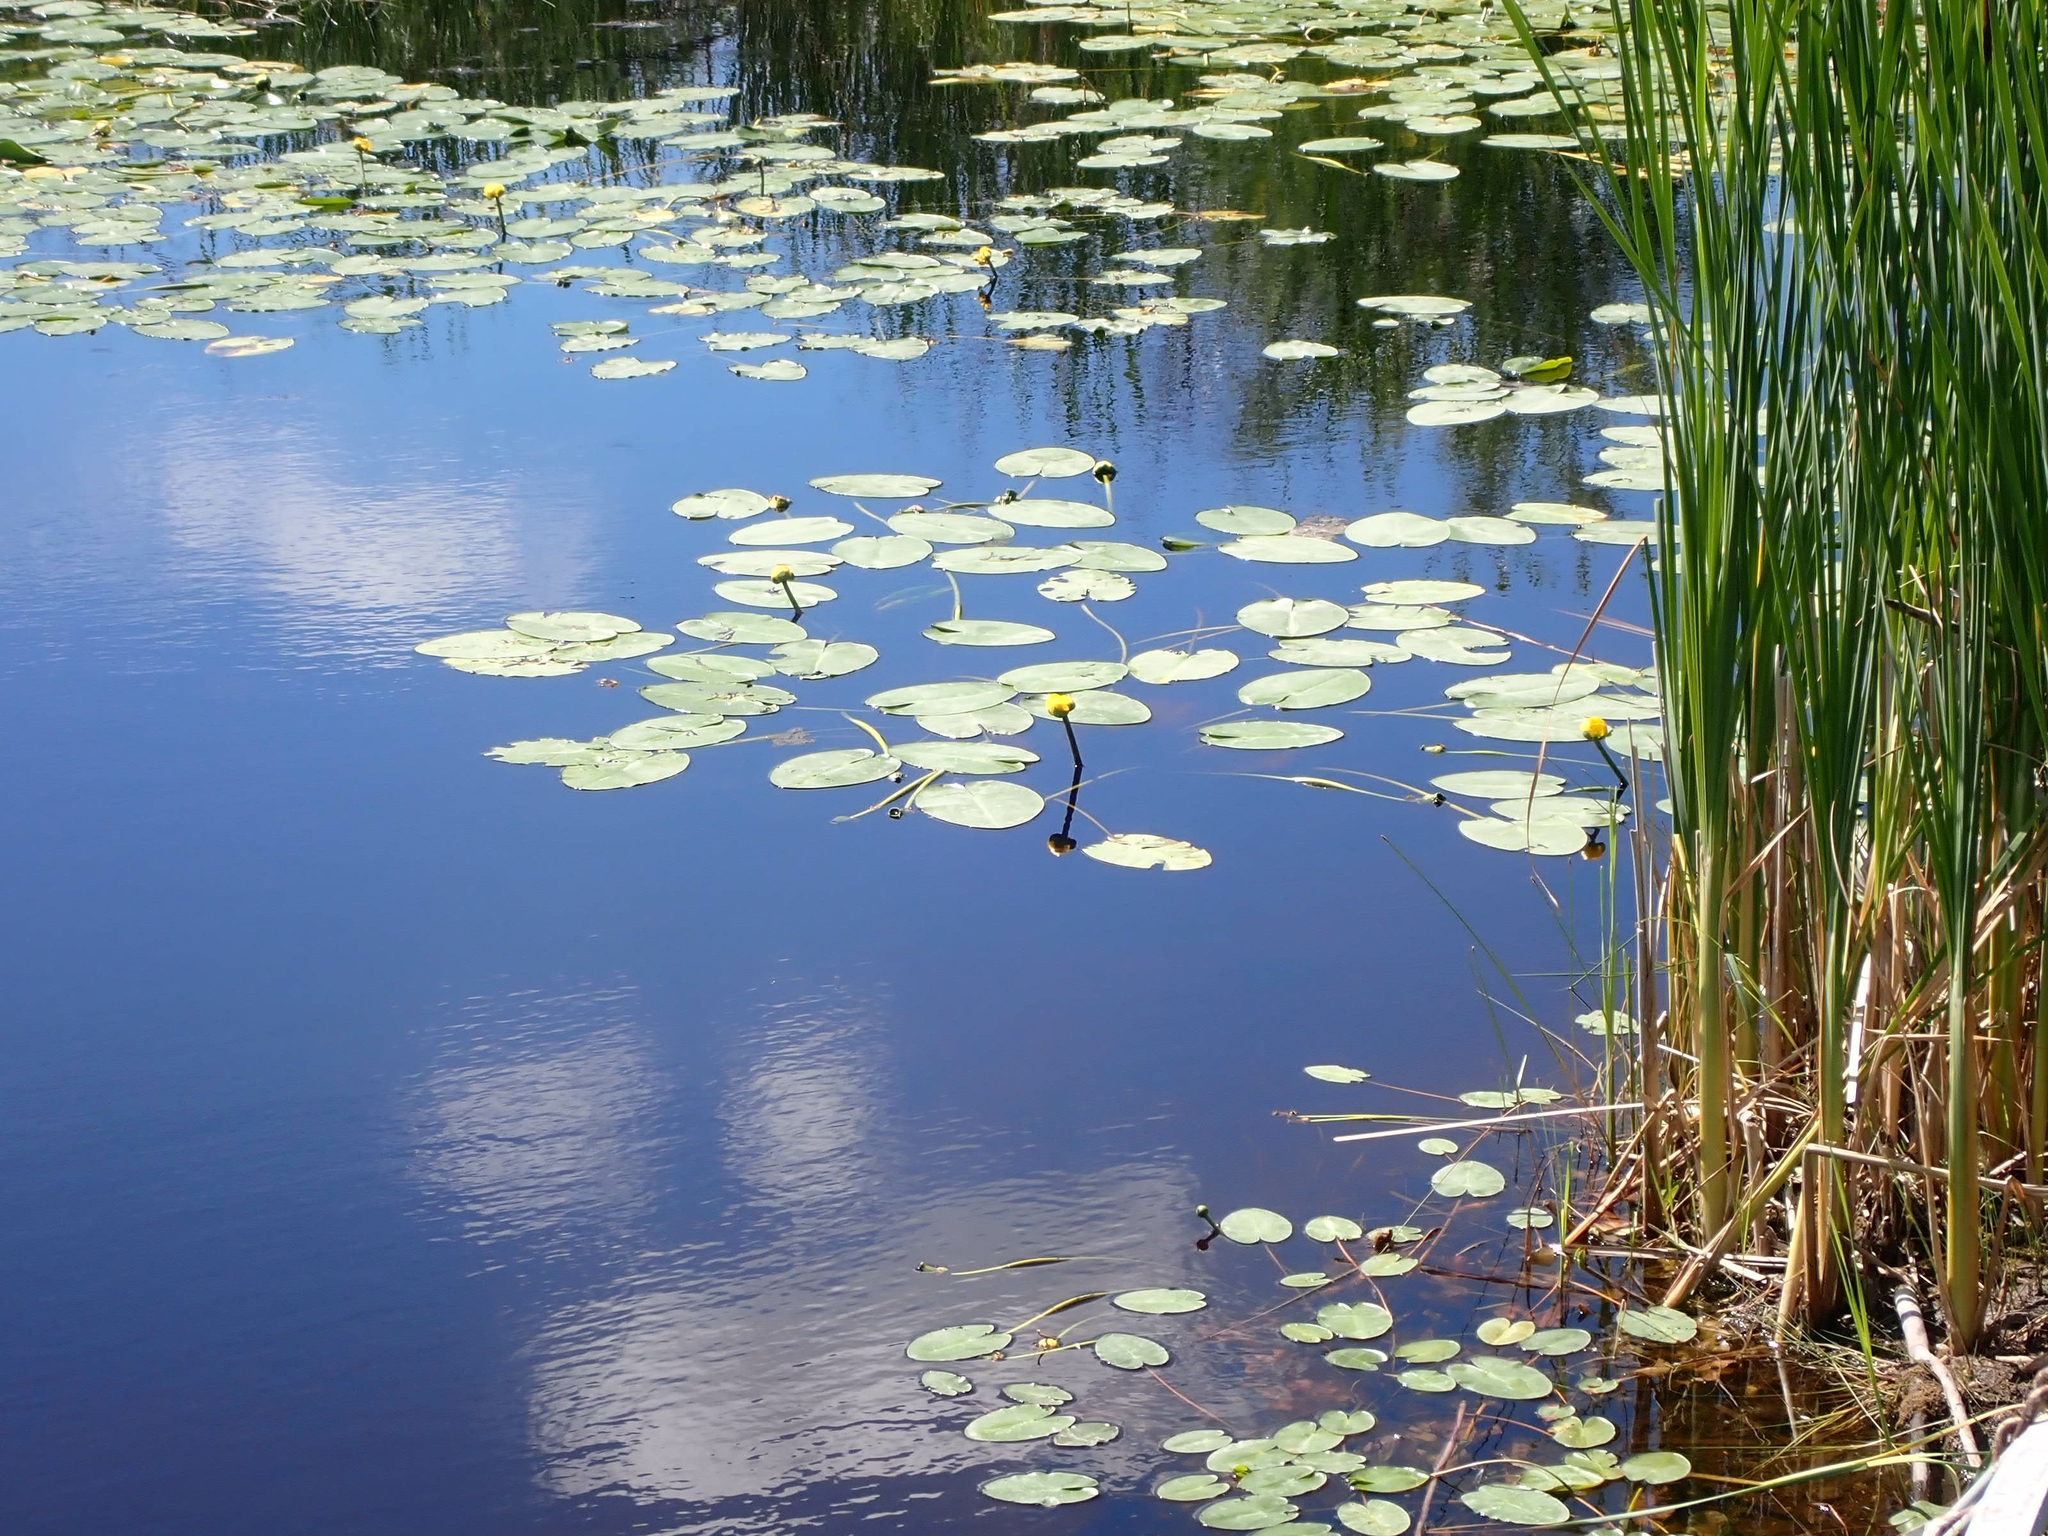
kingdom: Plantae
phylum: Tracheophyta
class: Magnoliopsida
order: Nymphaeales
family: Nymphaeaceae
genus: Nuphar
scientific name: Nuphar variegata
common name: Beaver-root
